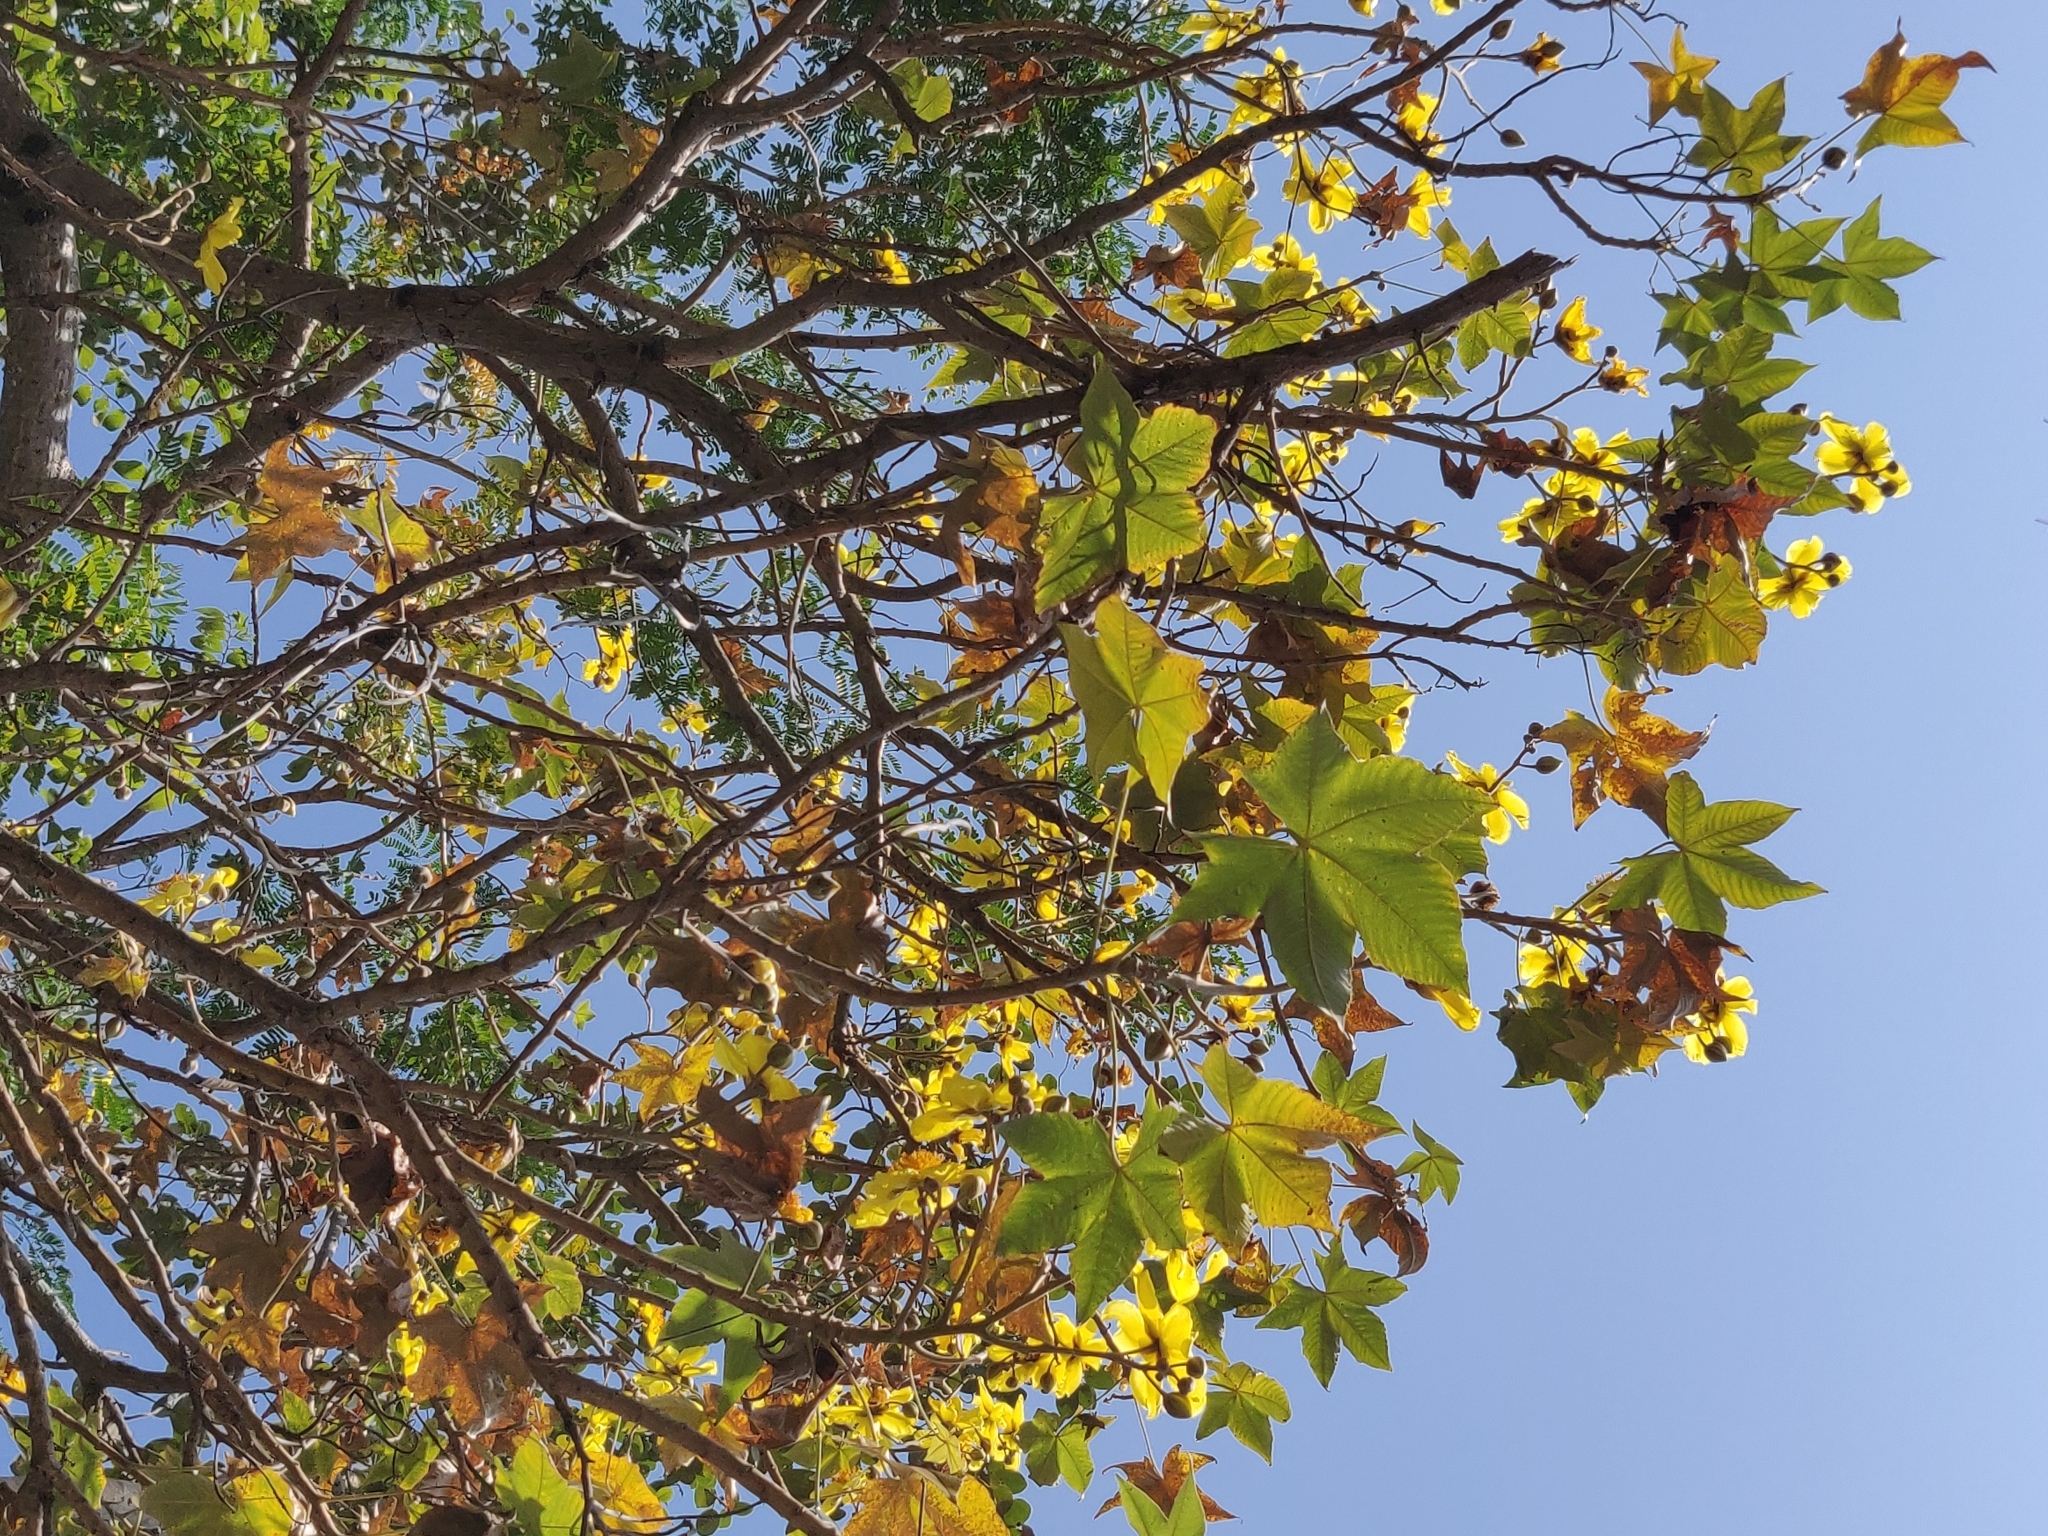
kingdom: Plantae
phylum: Tracheophyta
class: Magnoliopsida
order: Malvales
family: Cochlospermaceae
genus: Cochlospermum
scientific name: Cochlospermum religiosum
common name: Cottontree
